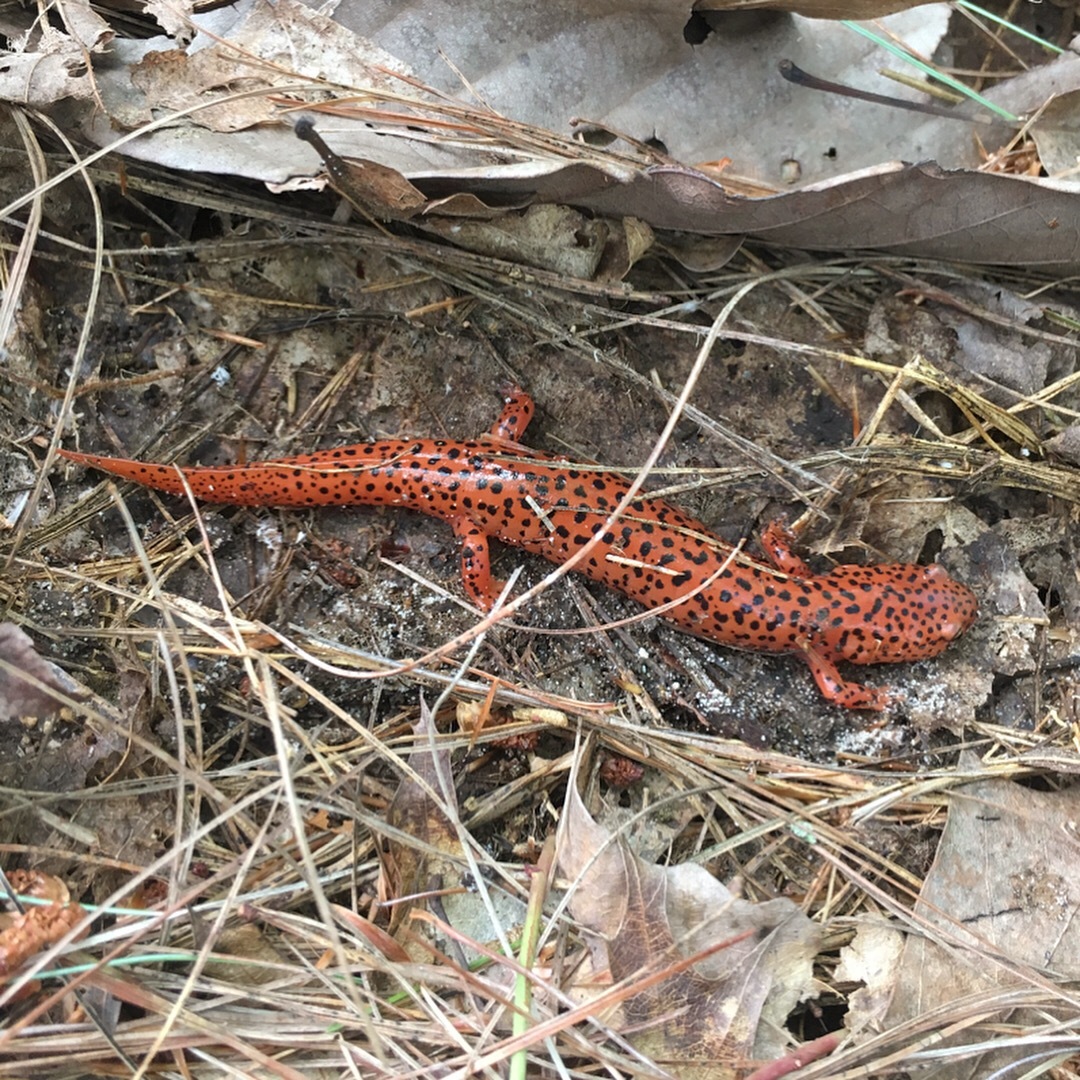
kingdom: Animalia
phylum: Chordata
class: Amphibia
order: Caudata
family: Plethodontidae
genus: Pseudotriton
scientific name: Pseudotriton ruber
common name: Red salamander
